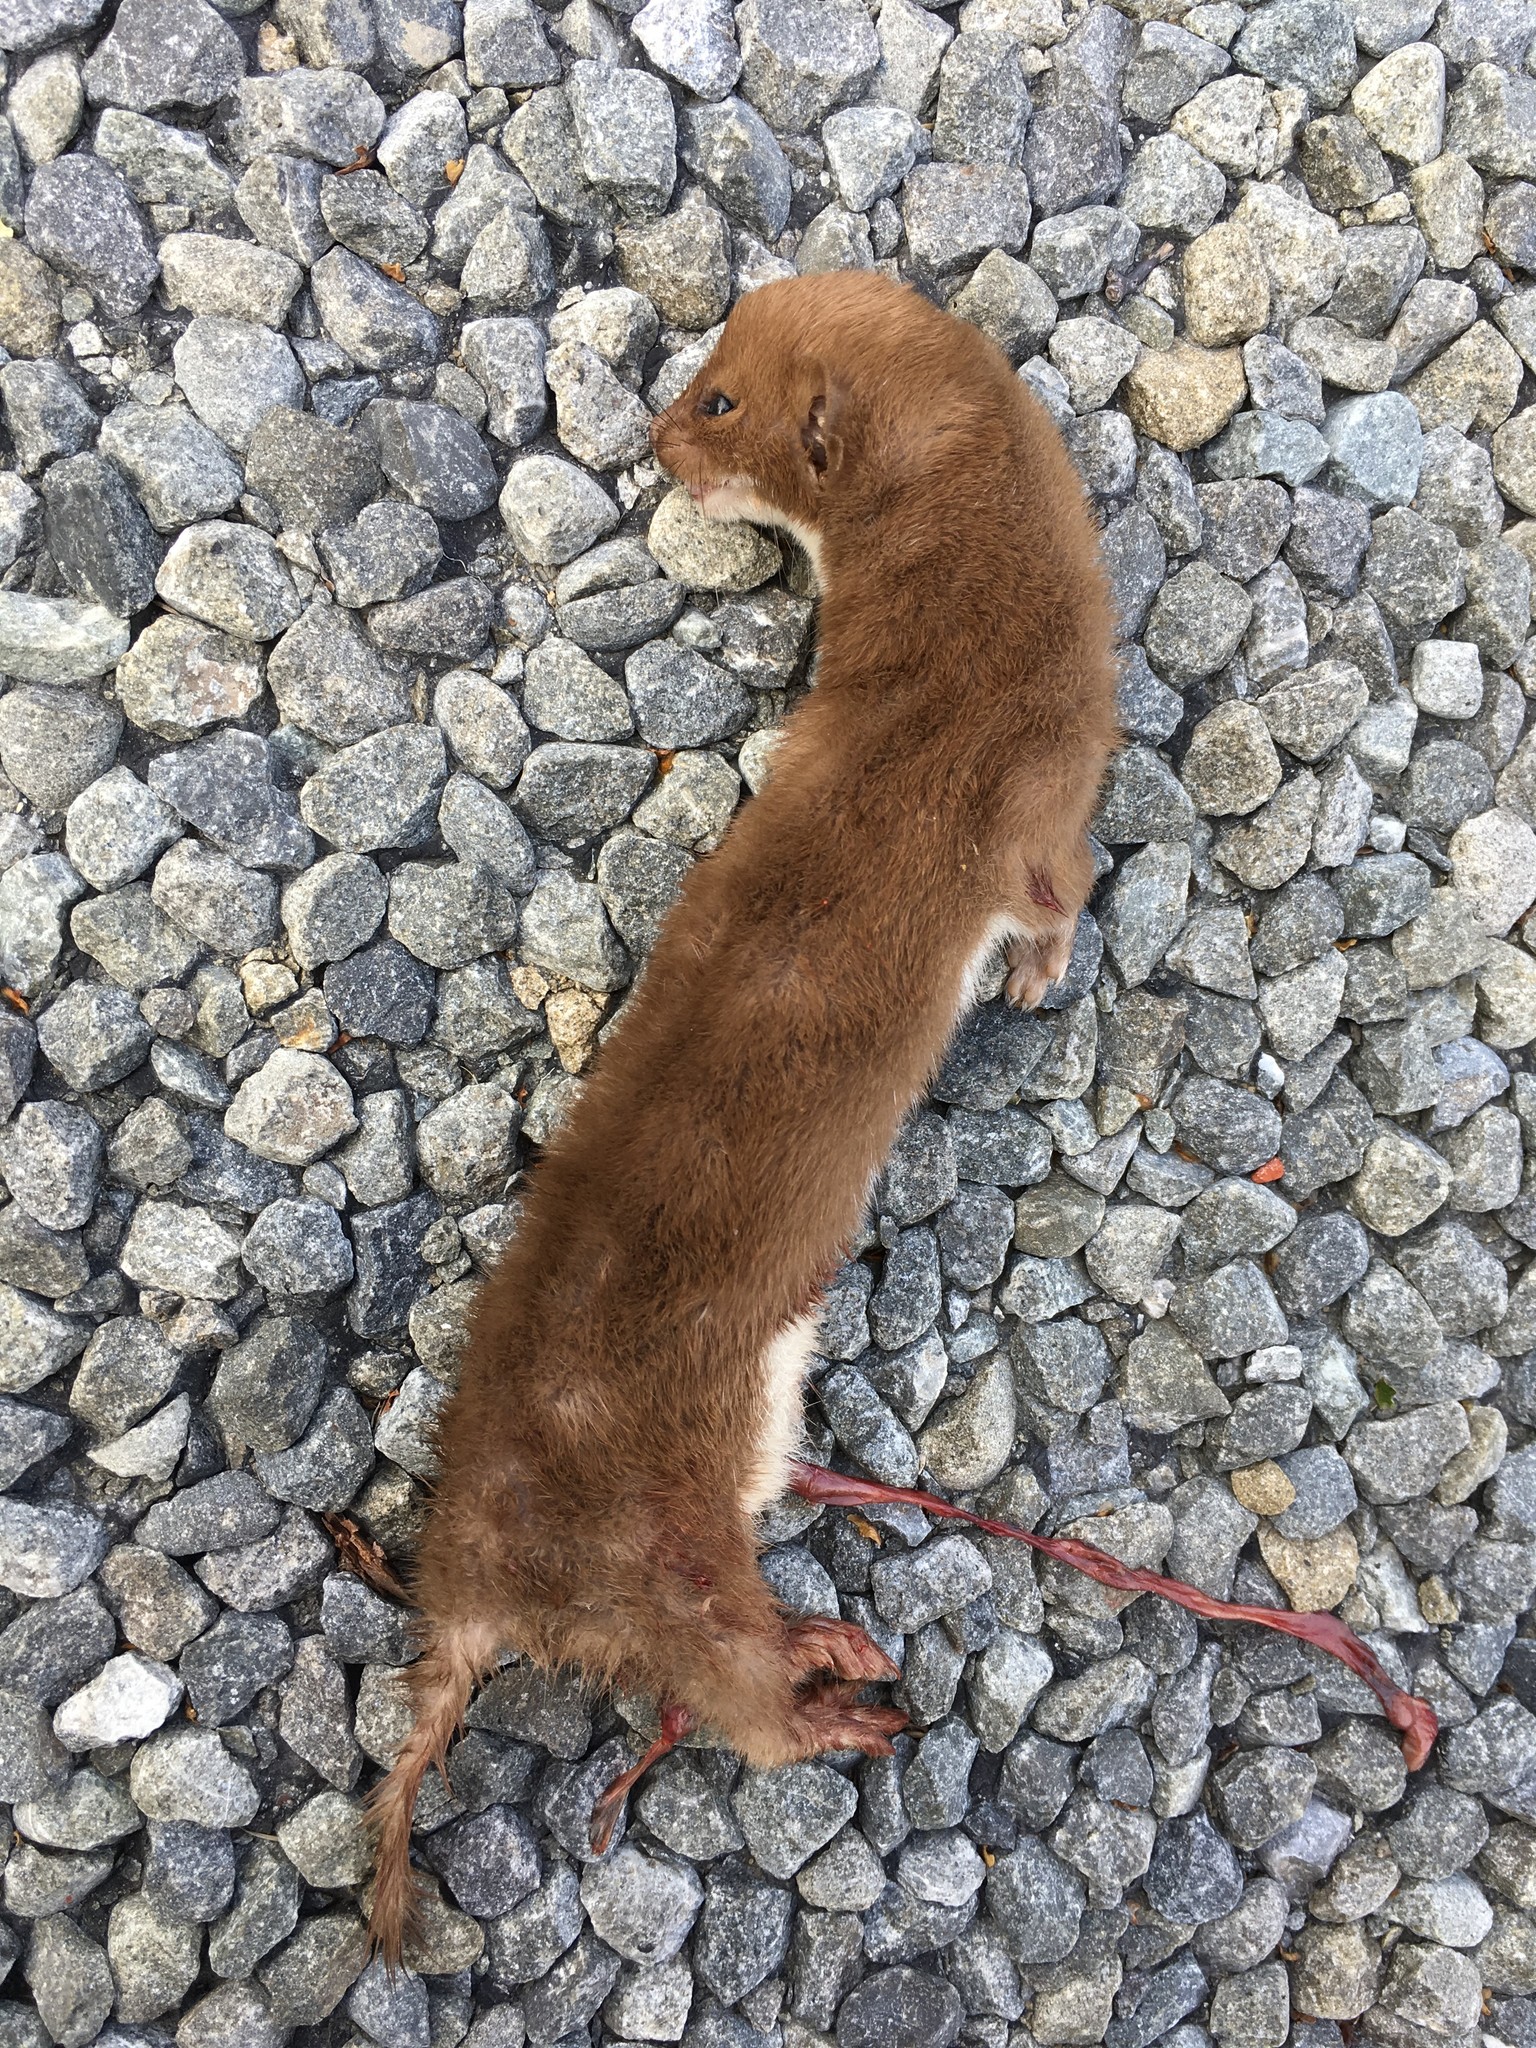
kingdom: Animalia
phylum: Chordata
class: Mammalia
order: Carnivora
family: Mustelidae
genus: Mustela
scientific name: Mustela nivalis
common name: Least weasel
